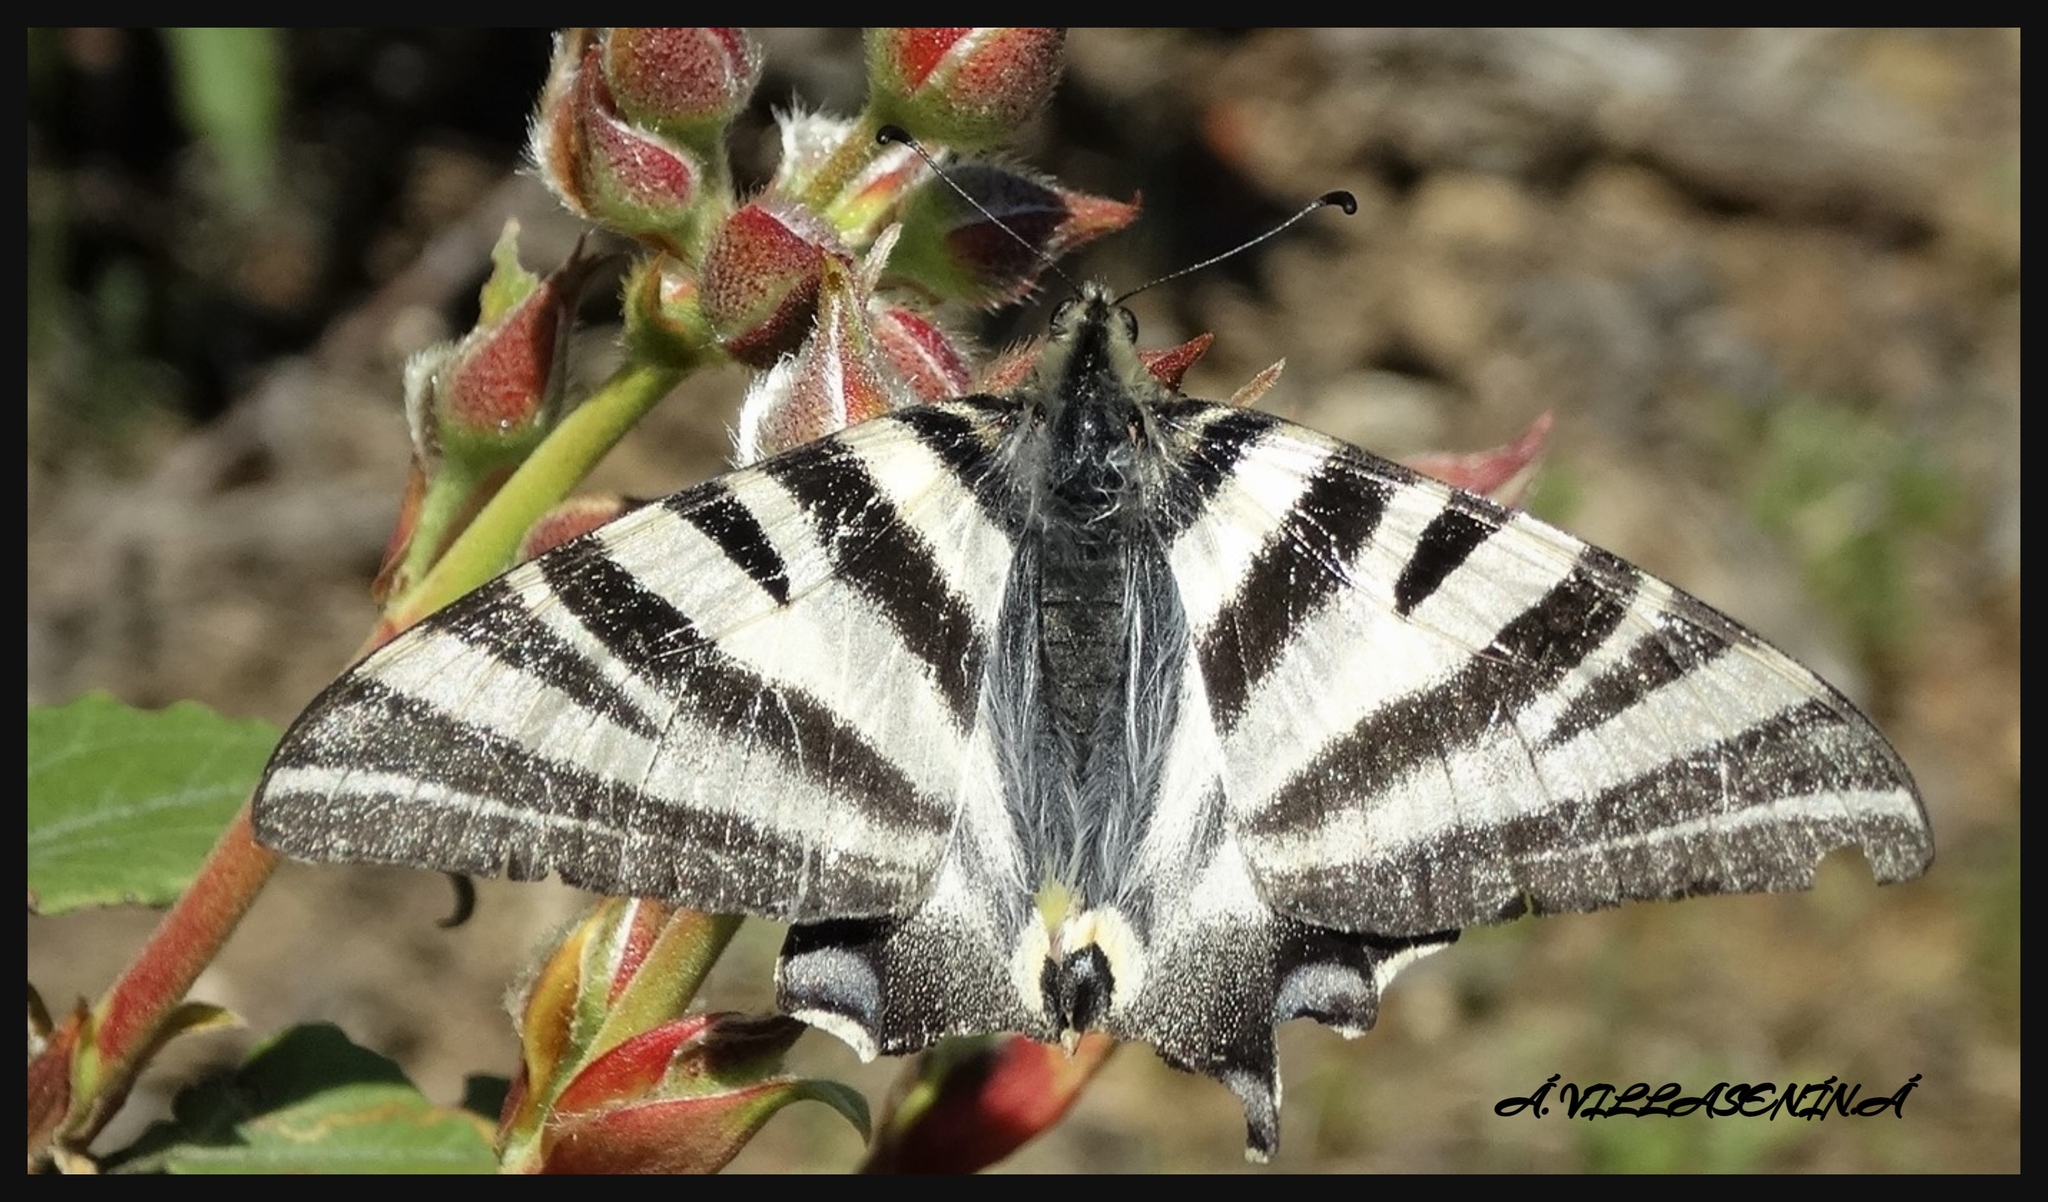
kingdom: Animalia
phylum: Arthropoda
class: Insecta
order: Lepidoptera
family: Papilionidae
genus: Iphiclides
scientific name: Iphiclides feisthamelii
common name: Iberian scarce swallowtail
